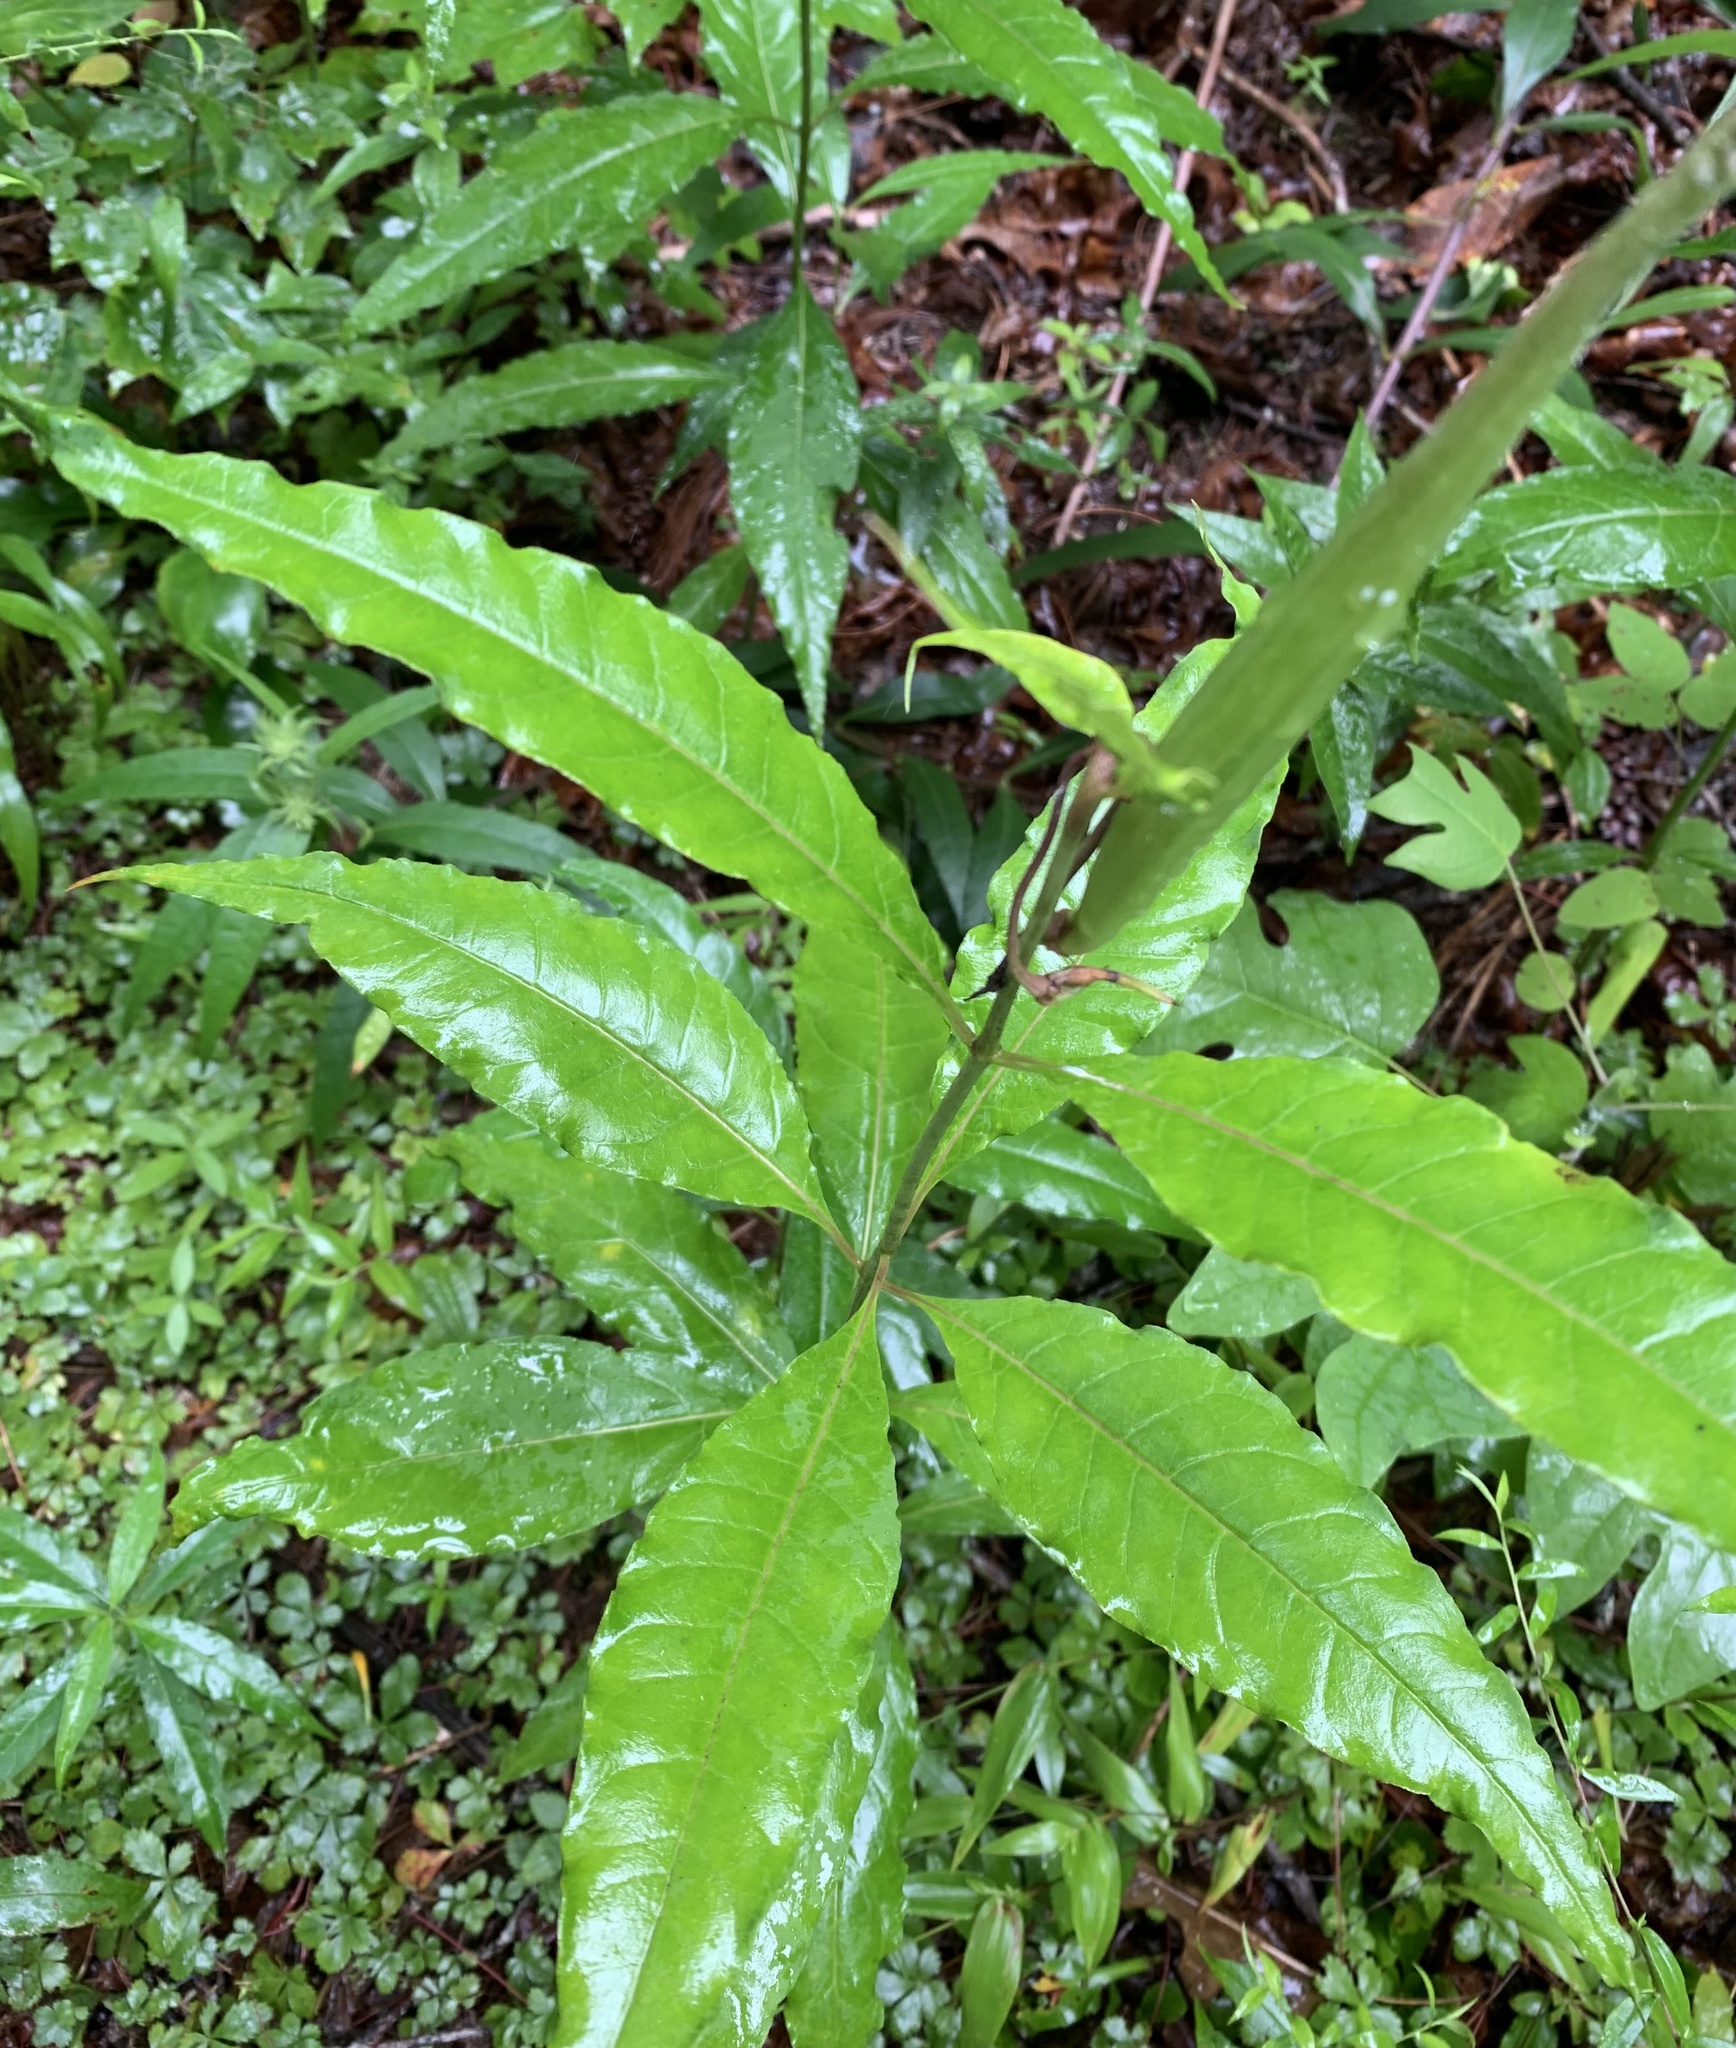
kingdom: Plantae
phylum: Tracheophyta
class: Magnoliopsida
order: Gentianales
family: Apocynaceae
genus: Asclepias
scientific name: Asclepias exaltata
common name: Poke milkweed
